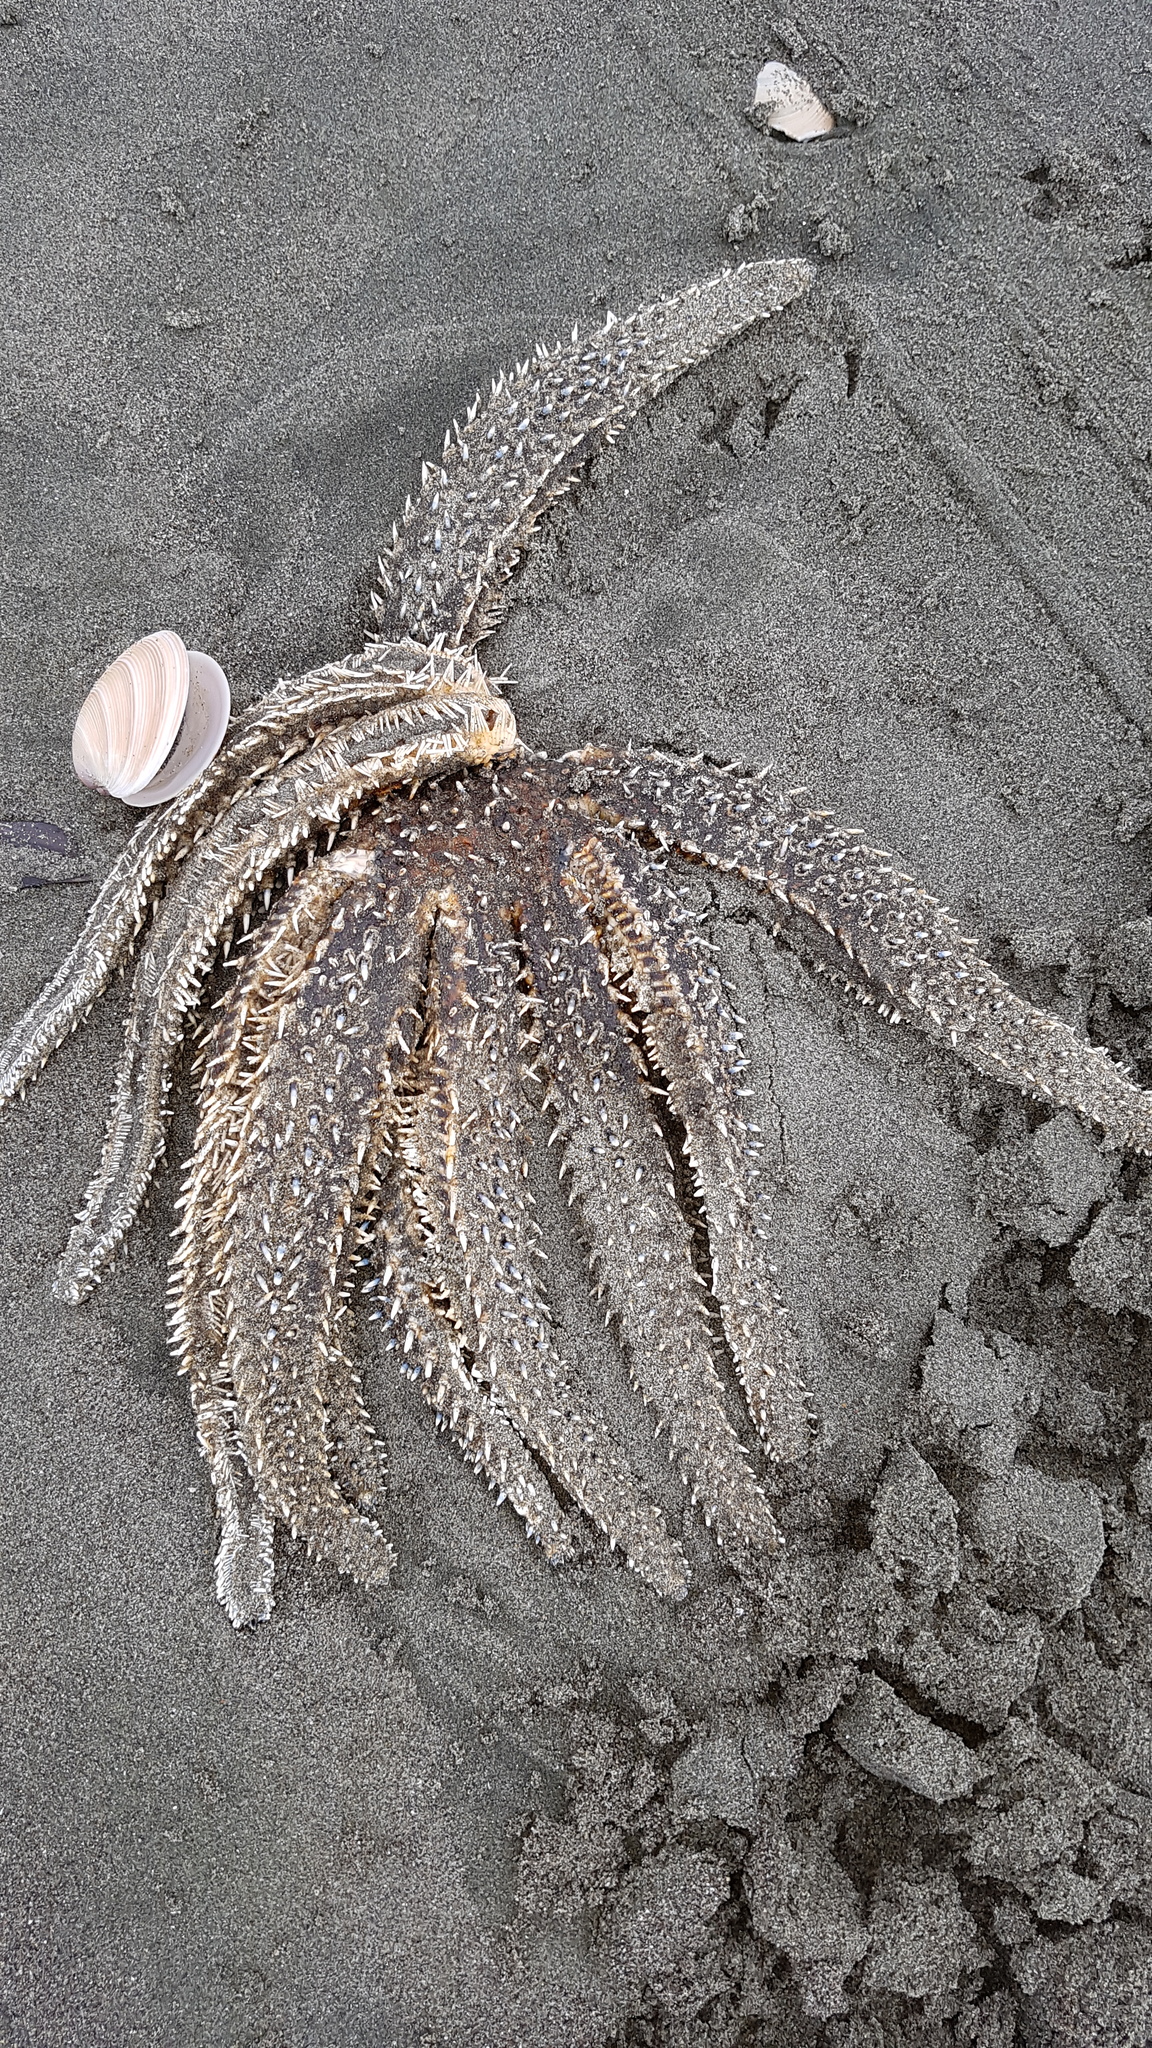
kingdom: Animalia
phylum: Echinodermata
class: Asteroidea
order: Forcipulatida
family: Asteriidae
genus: Coscinasterias
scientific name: Coscinasterias muricata
